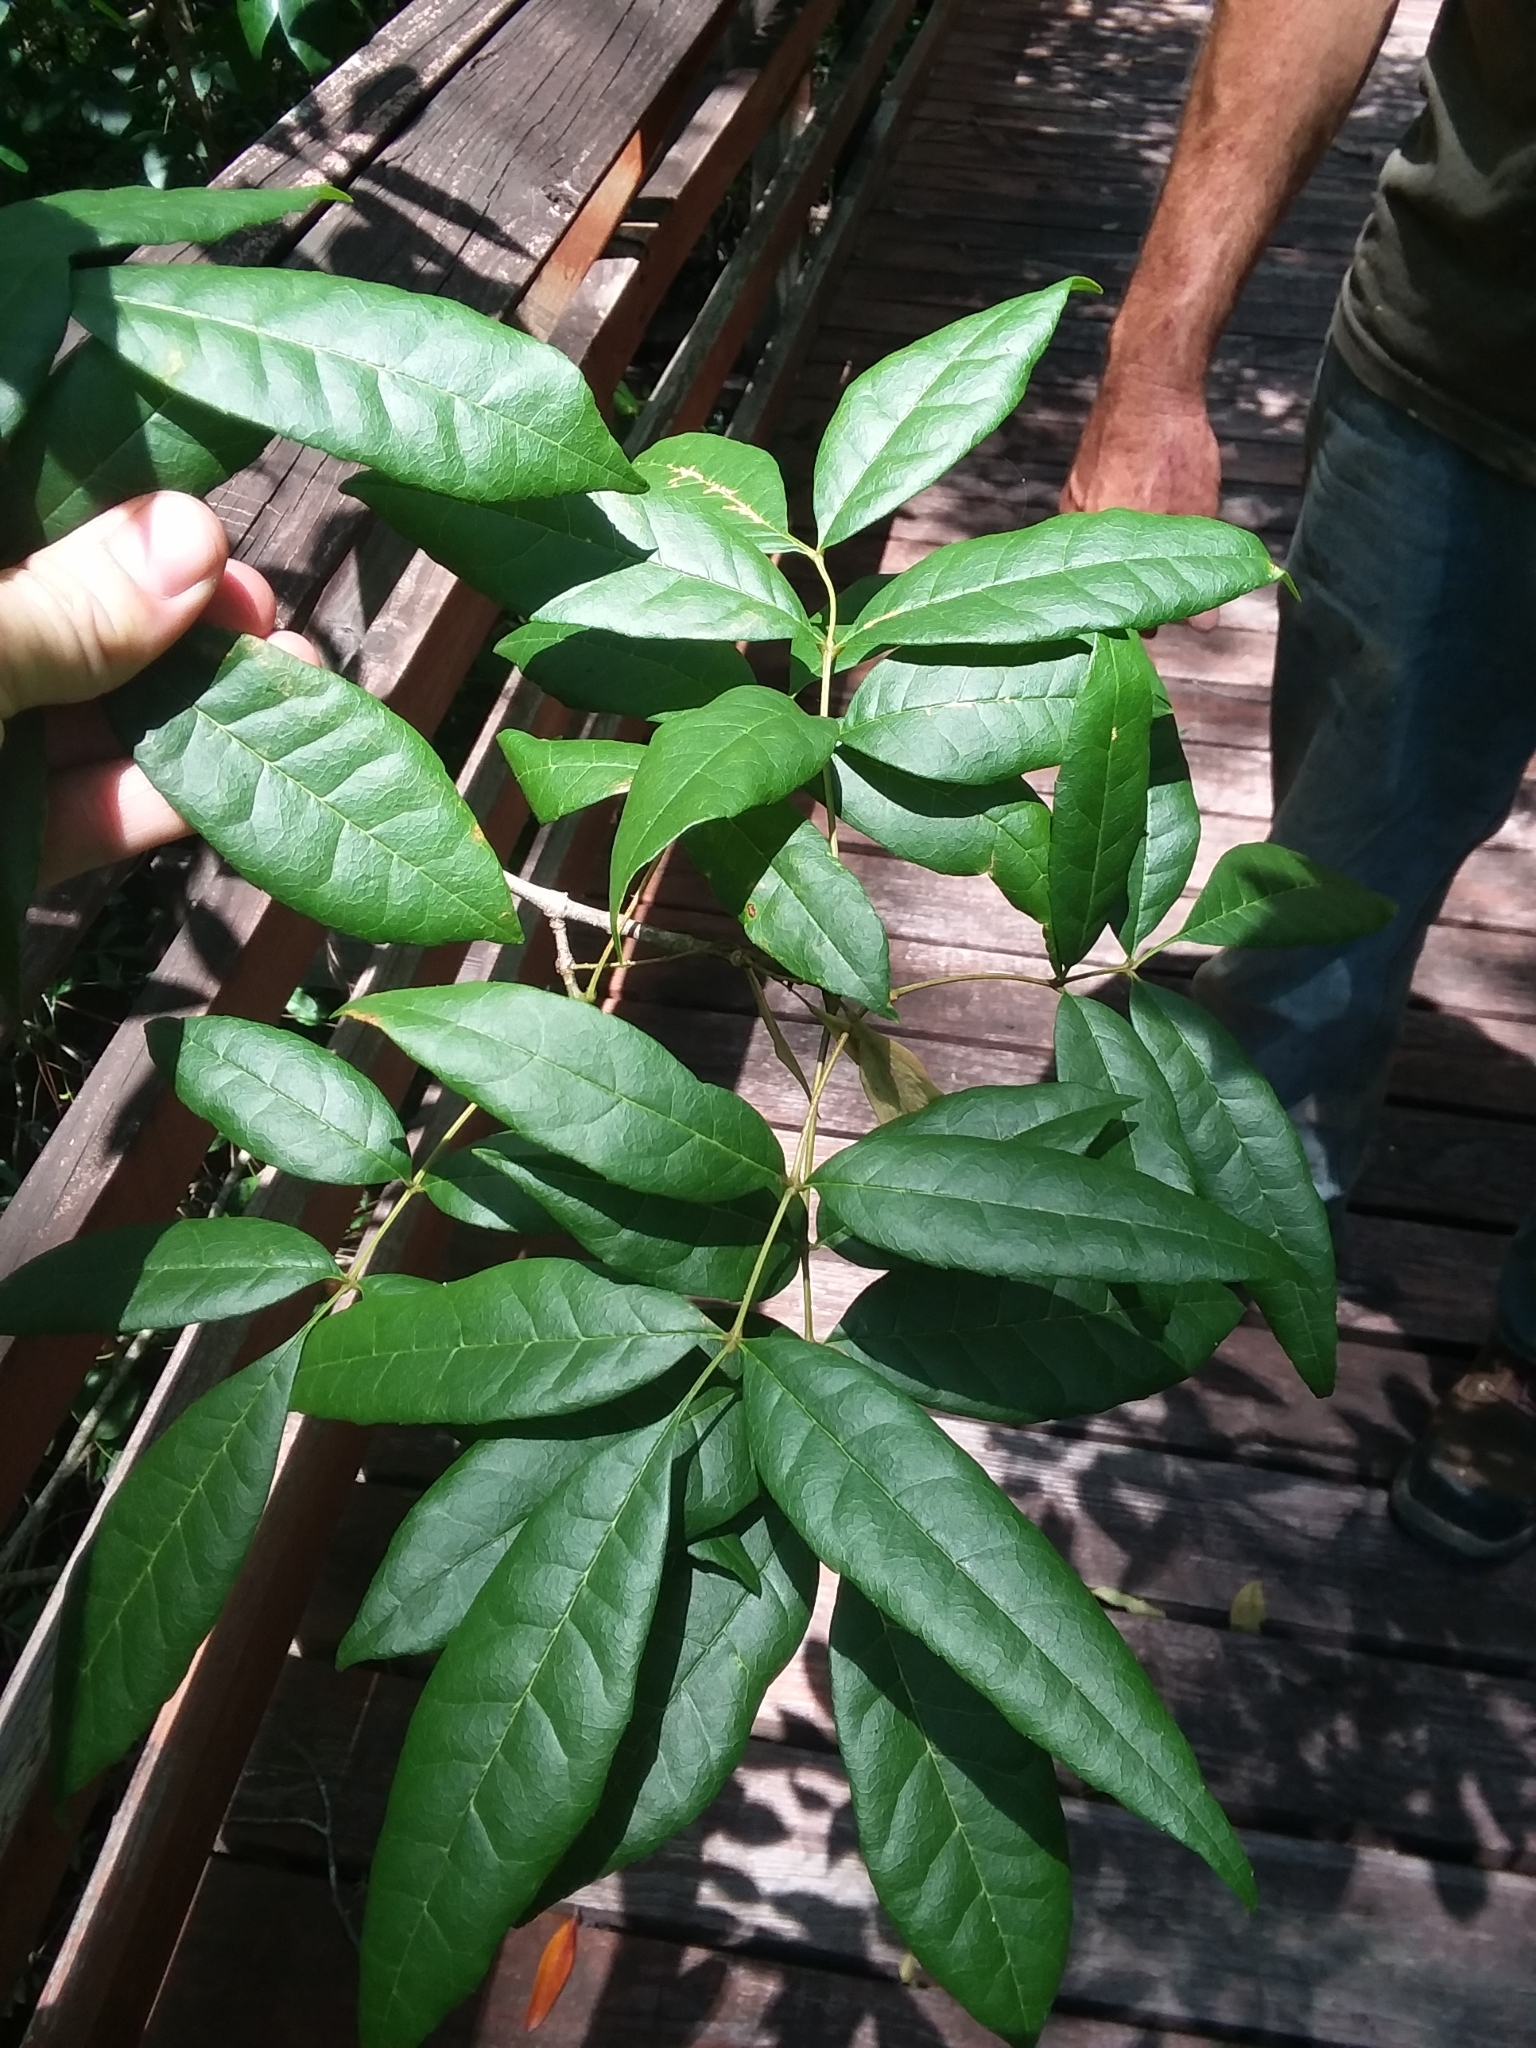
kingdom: Plantae
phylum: Tracheophyta
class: Magnoliopsida
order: Lamiales
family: Oleaceae
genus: Fraxinus
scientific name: Fraxinus caroliniana
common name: Carolina ash
